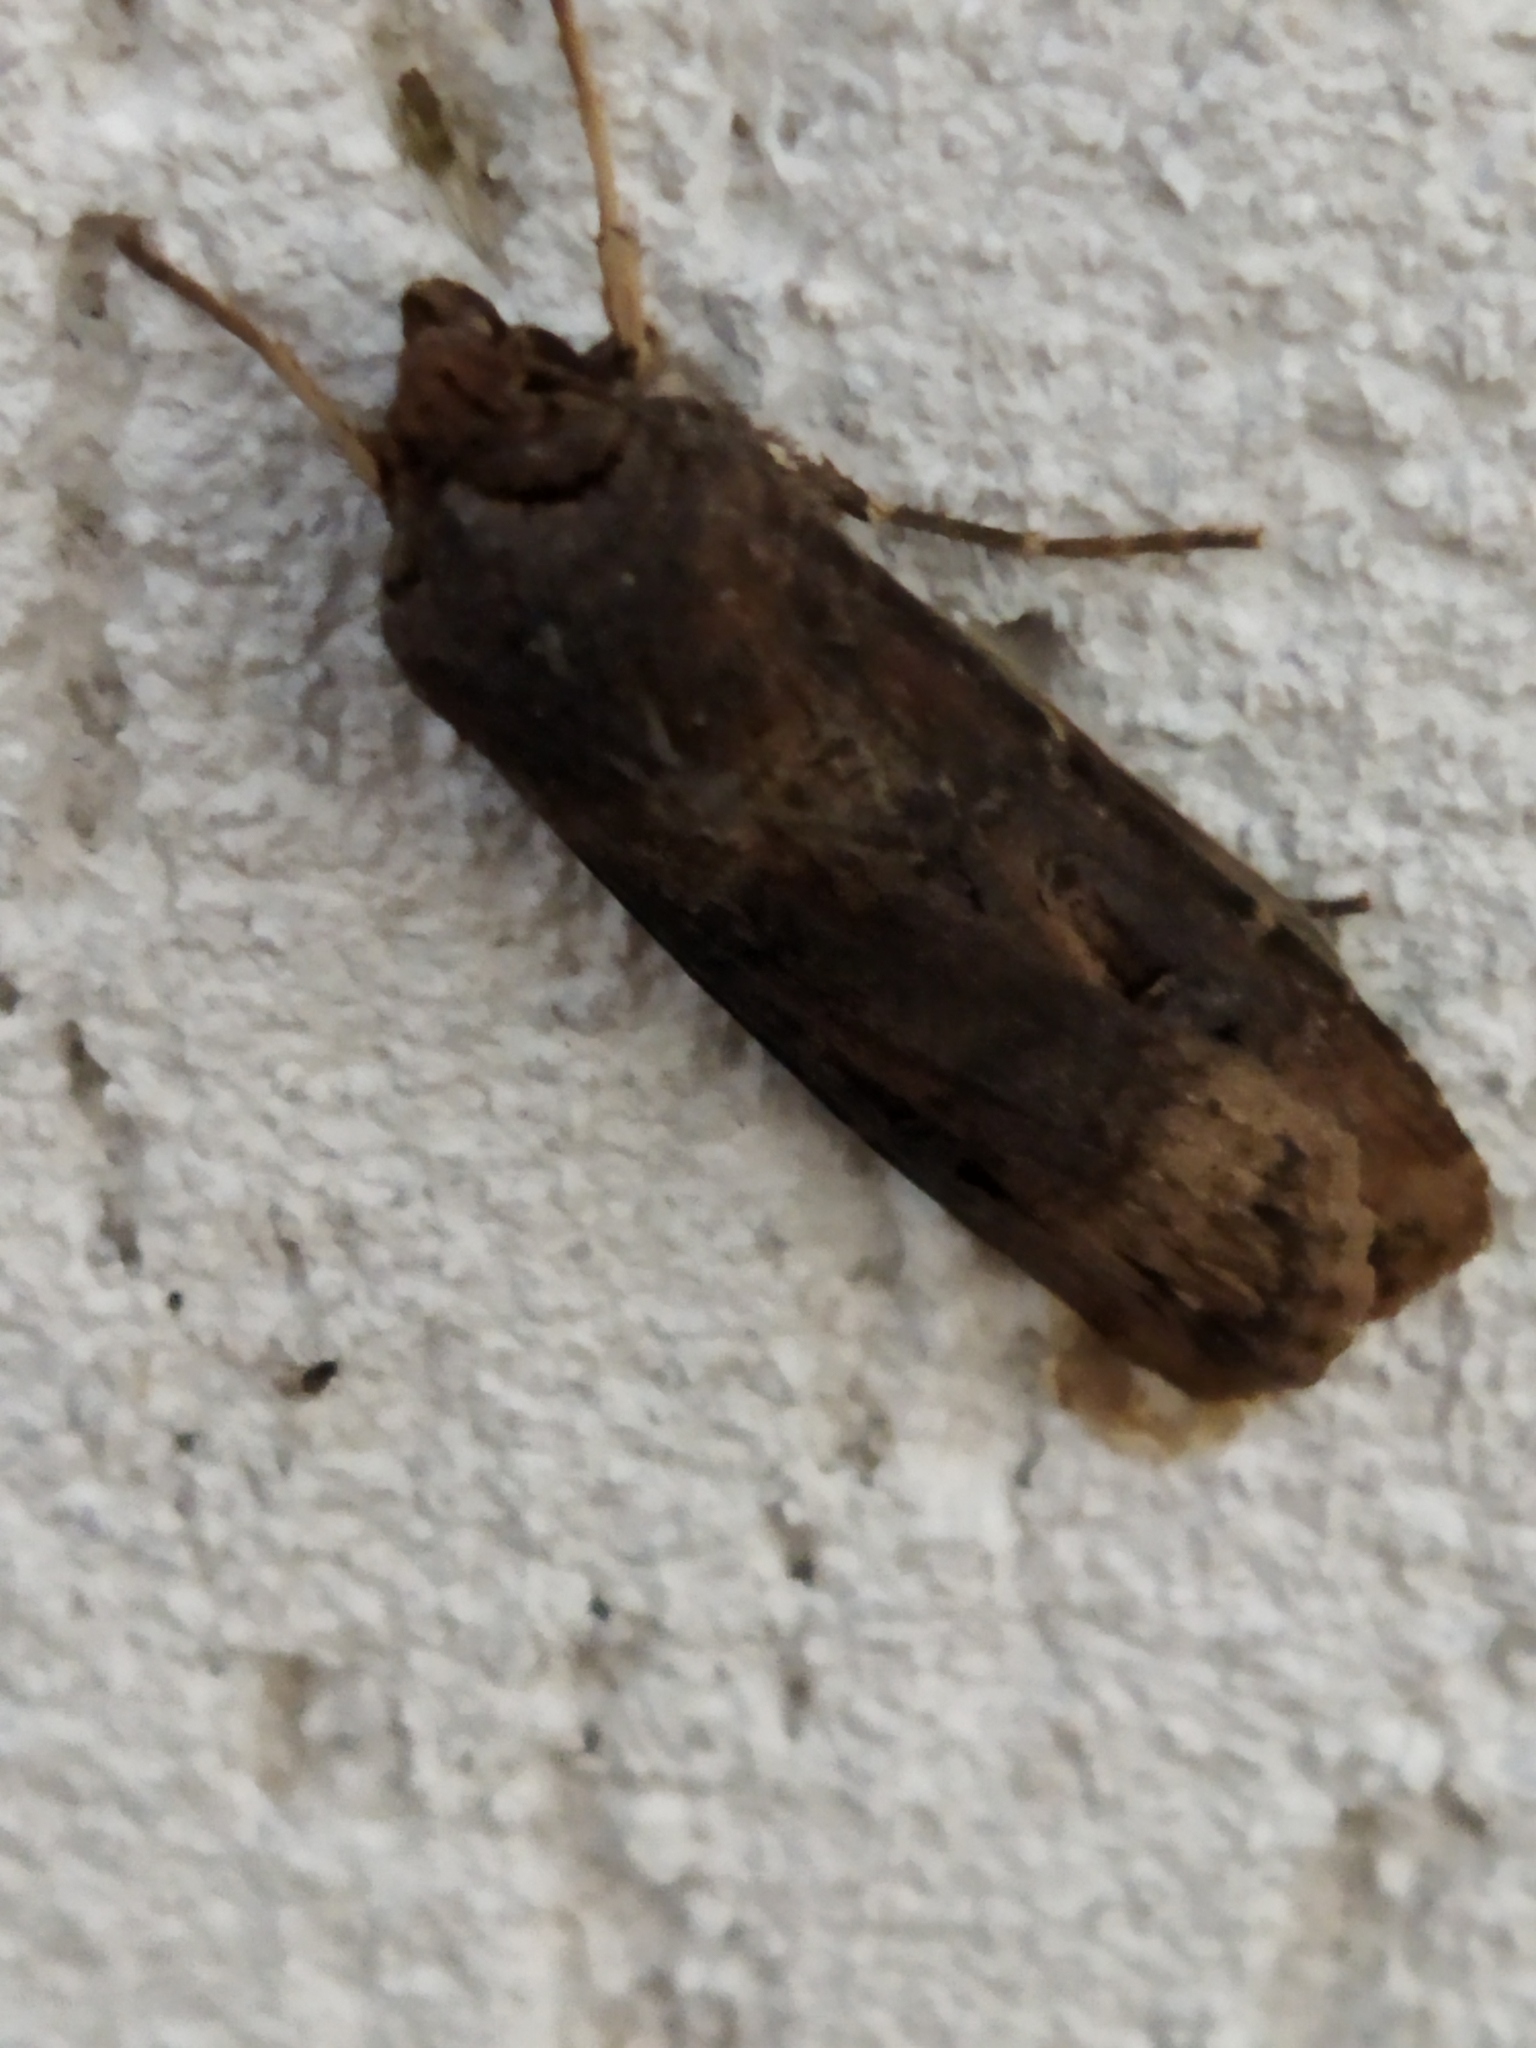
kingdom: Animalia
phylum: Arthropoda
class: Insecta
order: Lepidoptera
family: Noctuidae
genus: Agrotis
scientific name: Agrotis ipsilon
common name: Dark sword-grass
